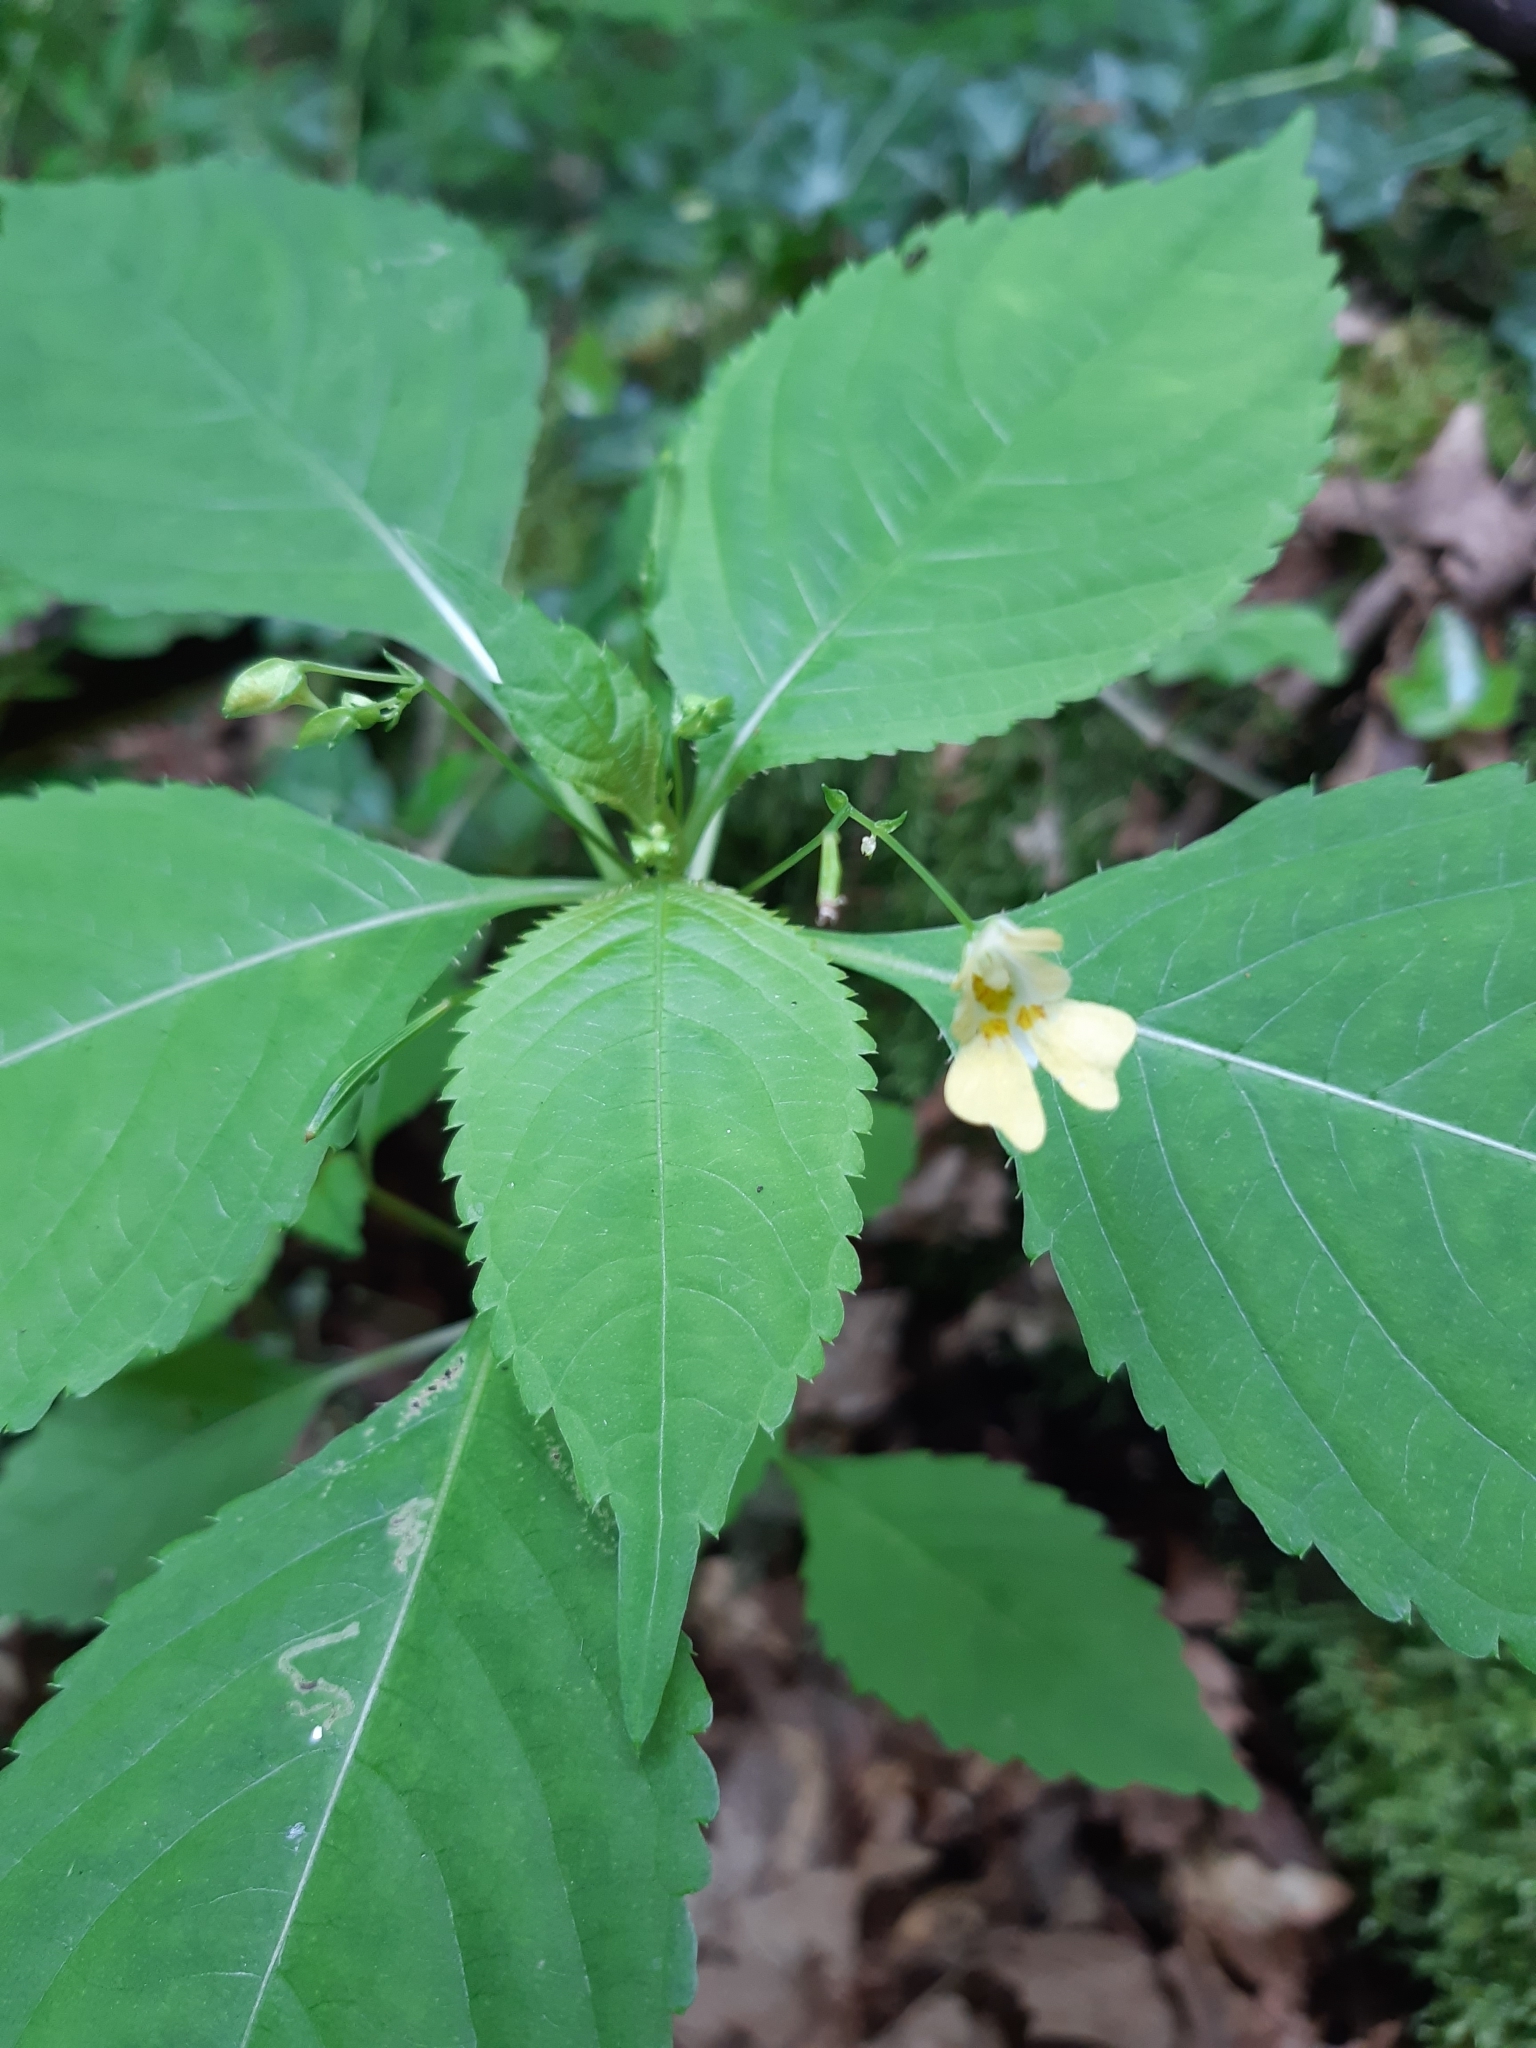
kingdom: Plantae
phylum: Tracheophyta
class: Magnoliopsida
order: Ericales
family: Balsaminaceae
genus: Impatiens
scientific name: Impatiens parviflora
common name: Small balsam
